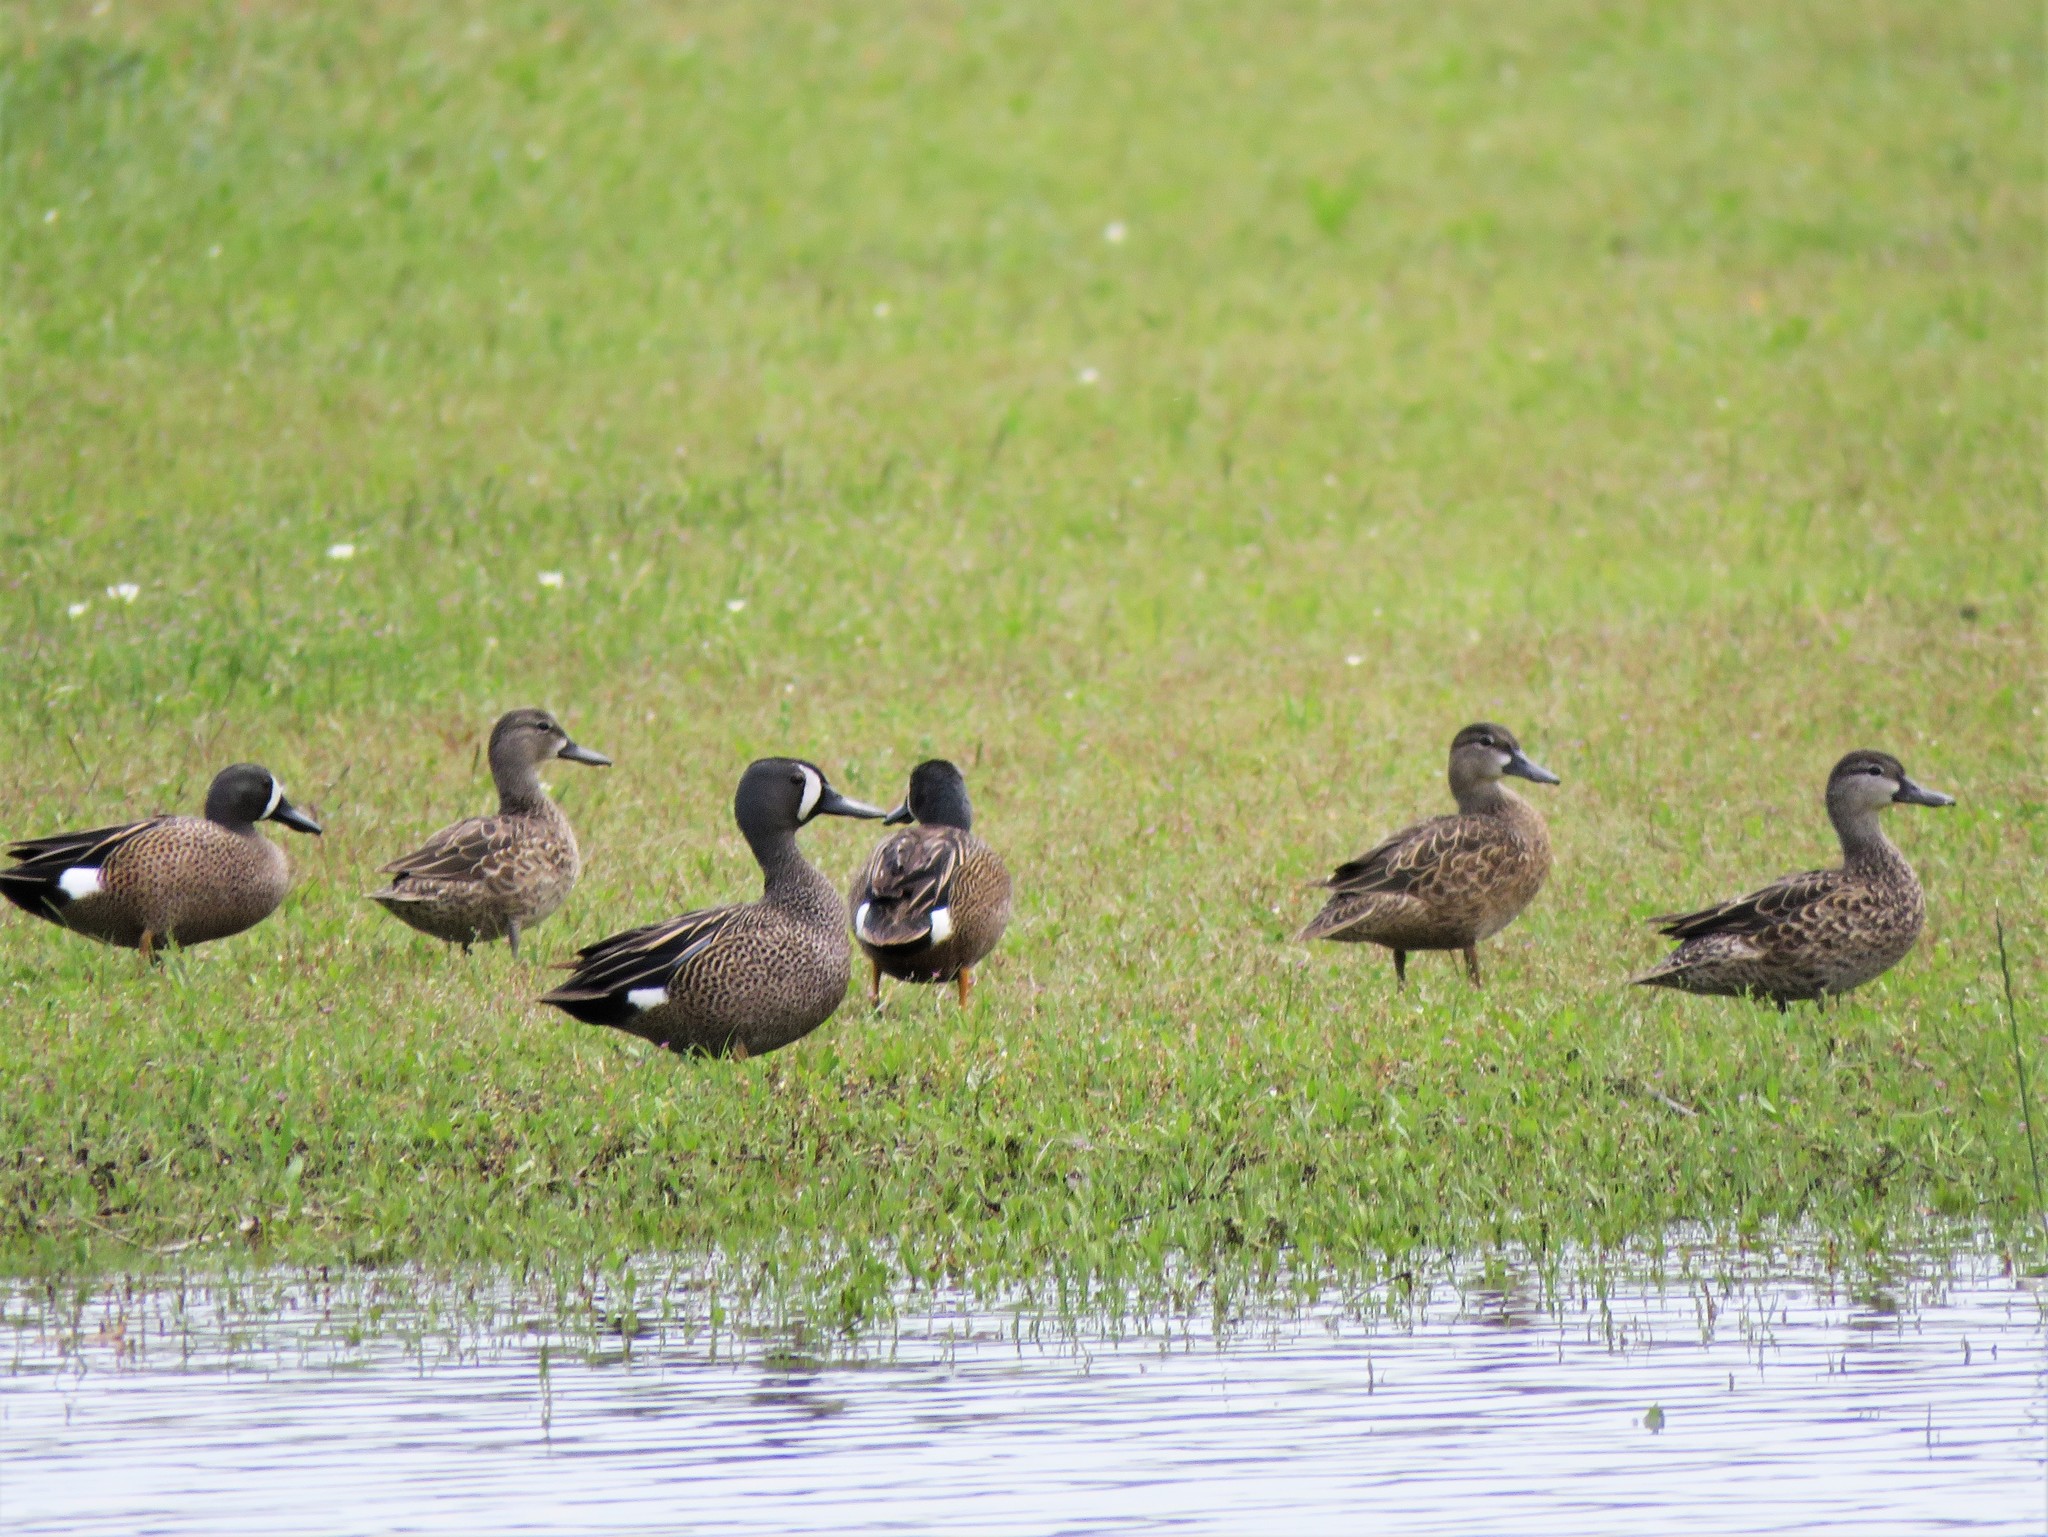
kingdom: Animalia
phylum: Chordata
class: Aves
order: Anseriformes
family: Anatidae
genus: Spatula
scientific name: Spatula discors
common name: Blue-winged teal
